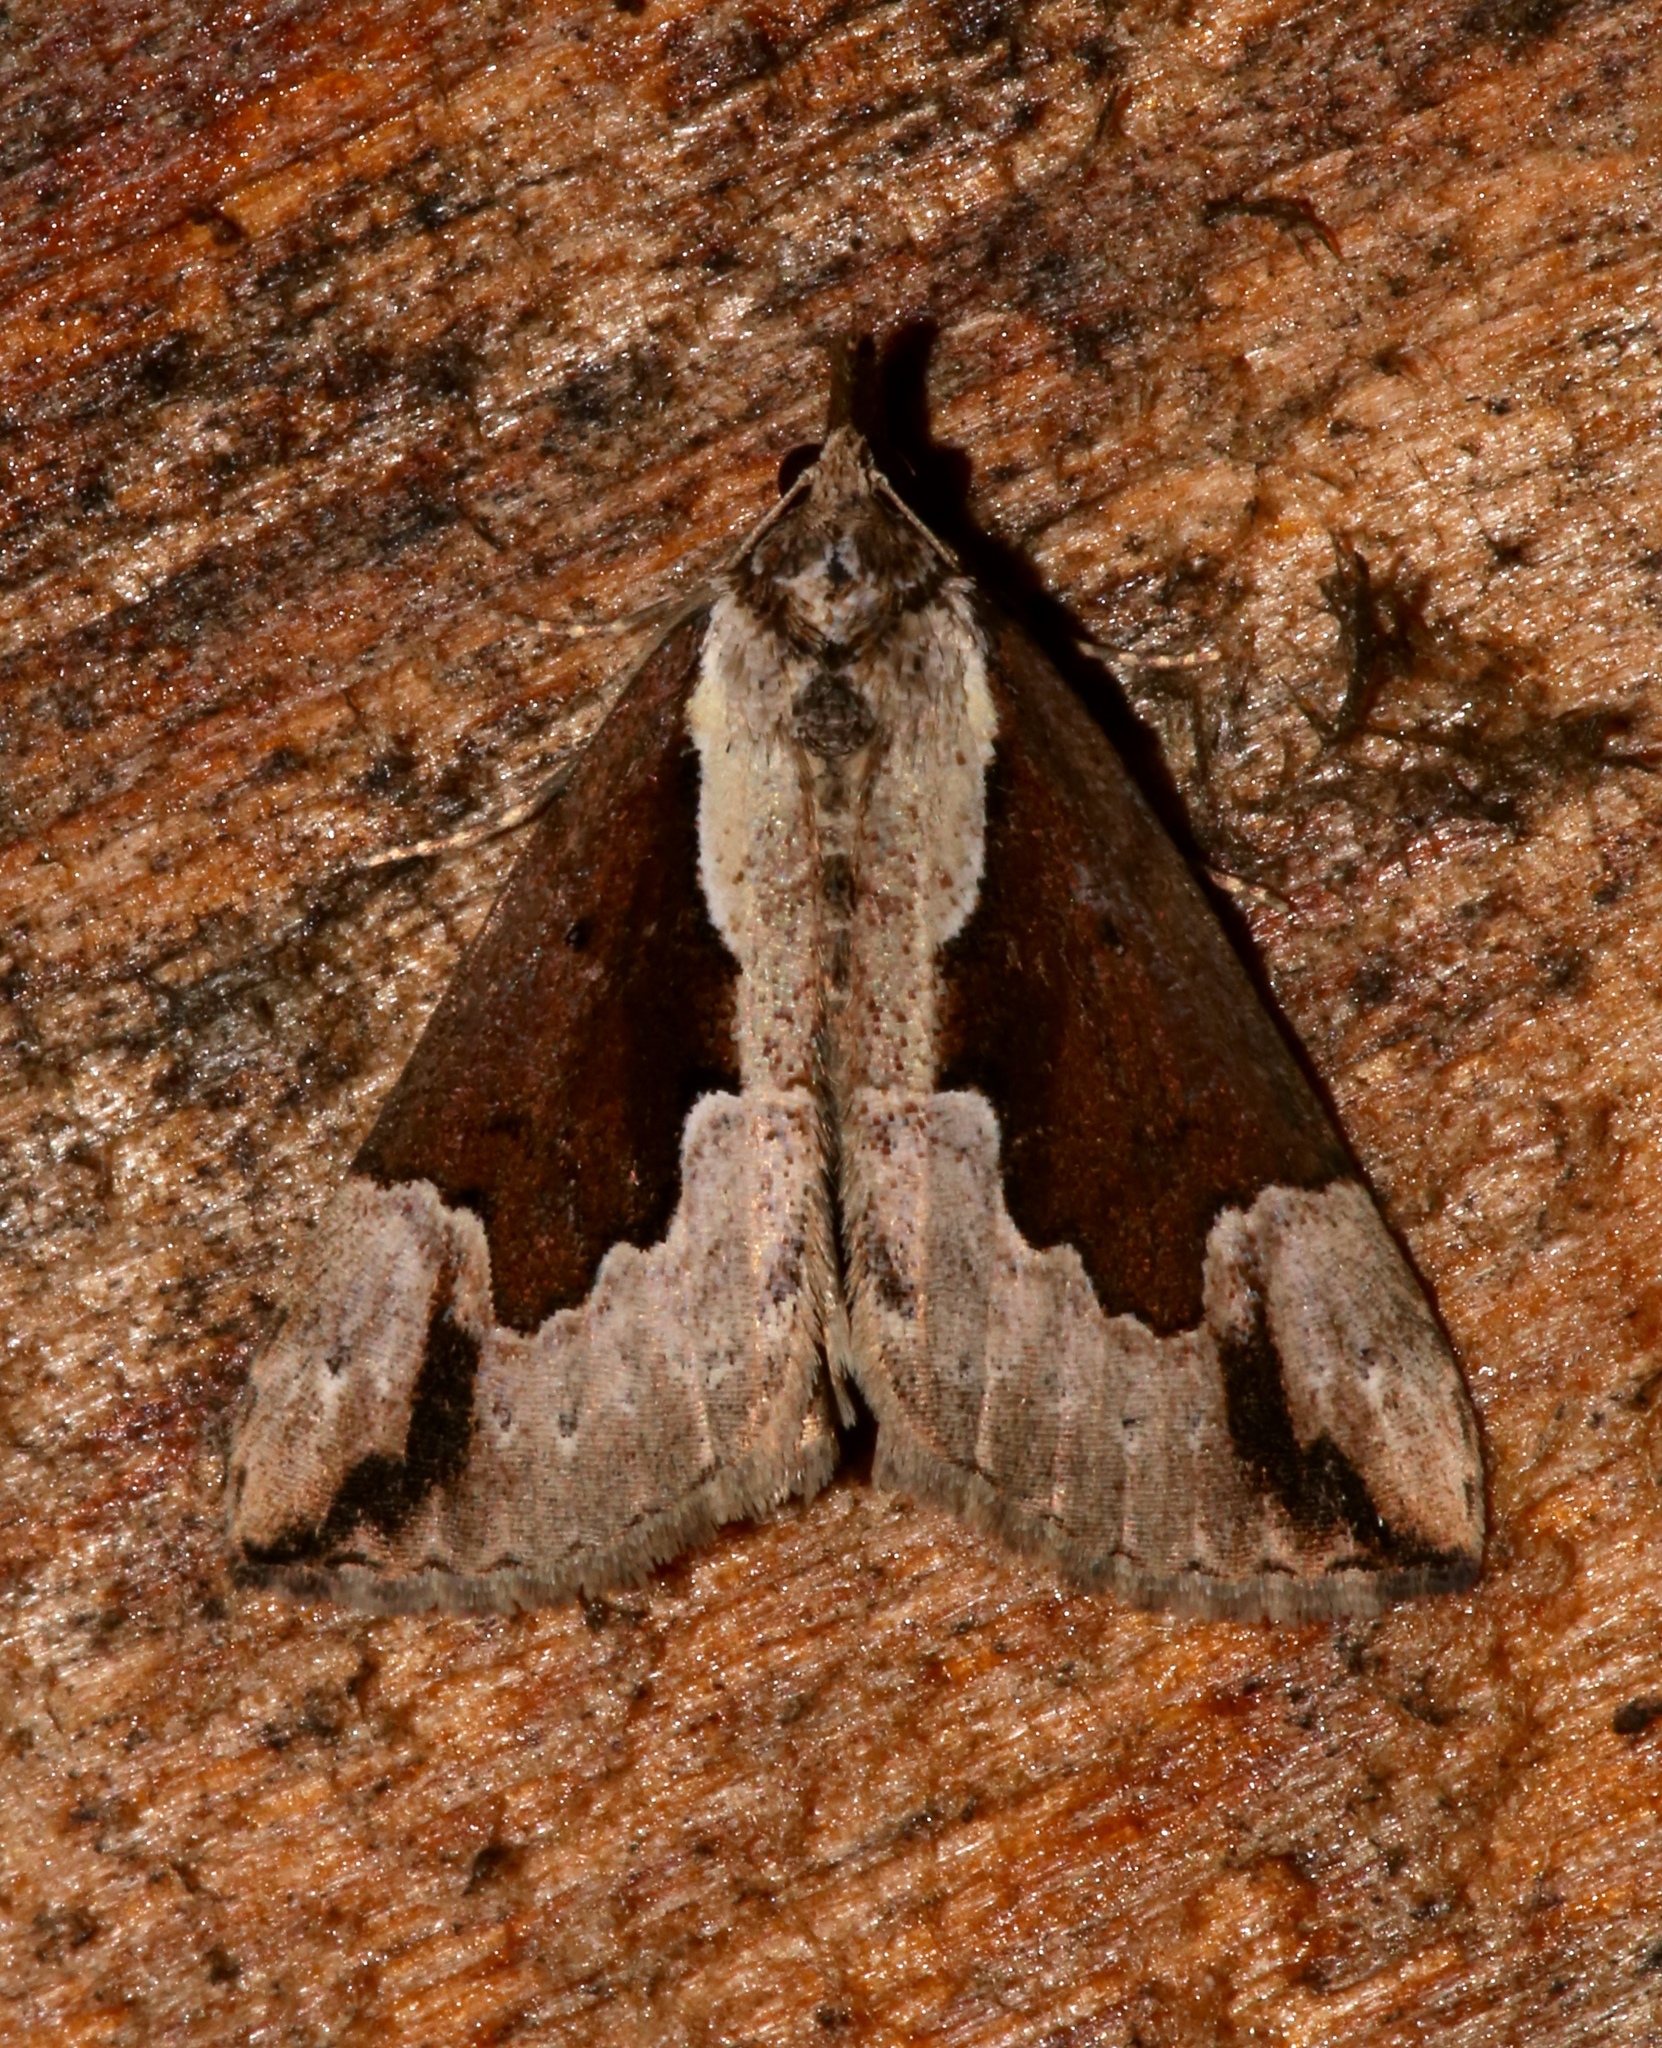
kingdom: Animalia
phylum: Arthropoda
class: Insecta
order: Lepidoptera
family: Erebidae
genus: Hypena
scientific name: Hypena baltimoralis
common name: Baltimore snout
